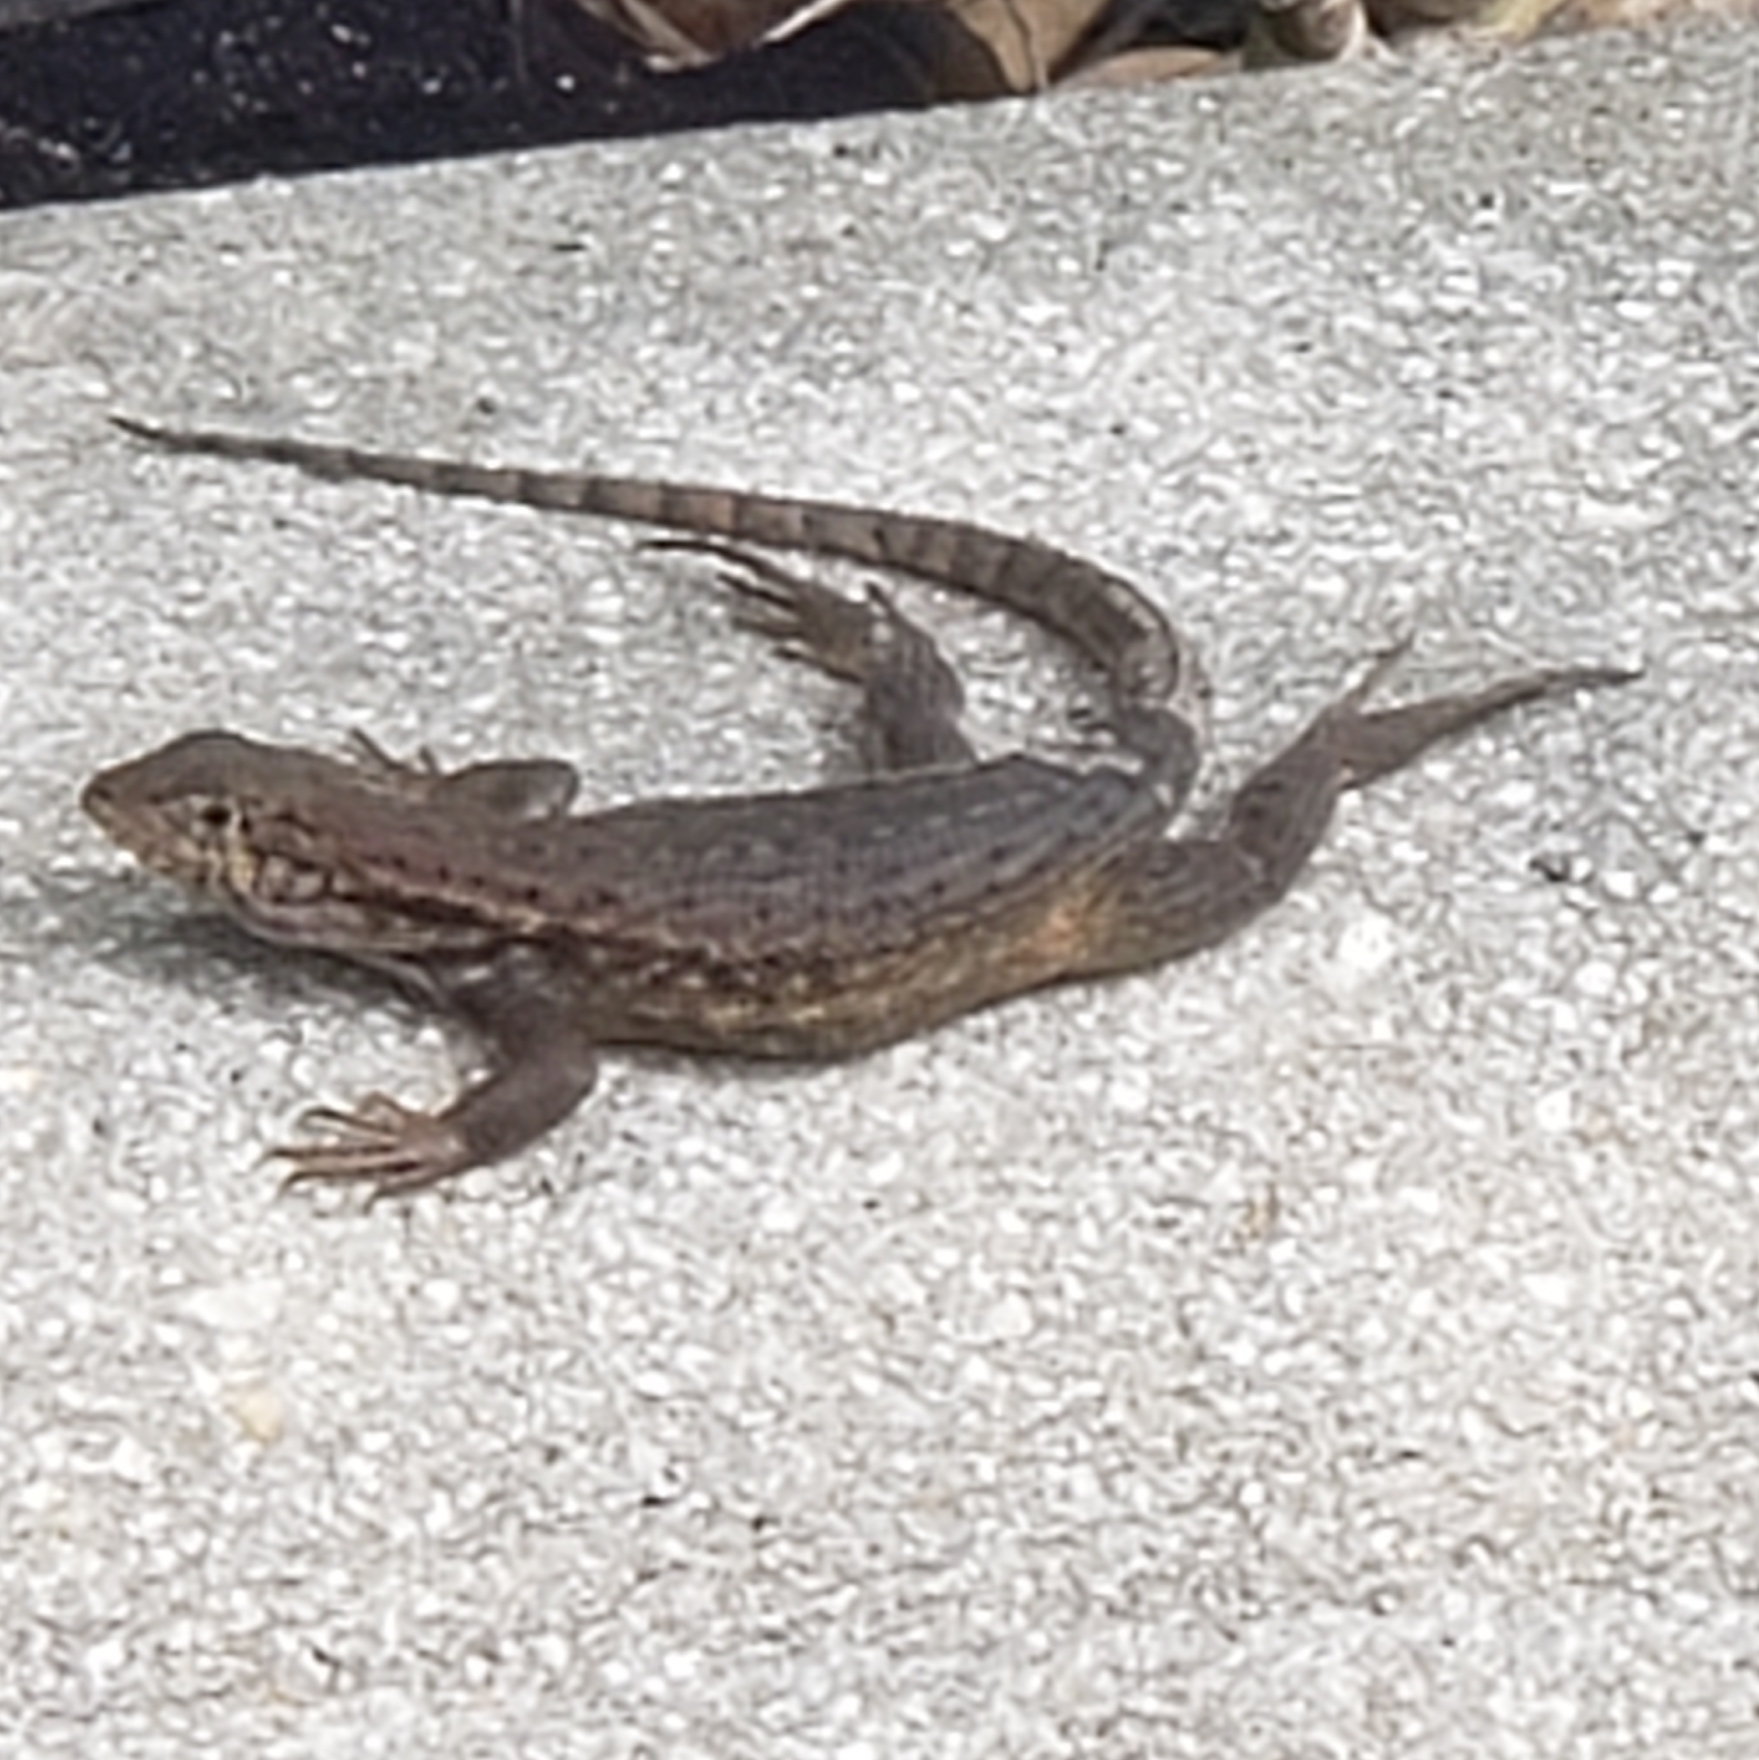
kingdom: Animalia
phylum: Chordata
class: Squamata
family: Leiocephalidae
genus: Leiocephalus
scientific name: Leiocephalus carinatus
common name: Northern curly-tailed lizard
